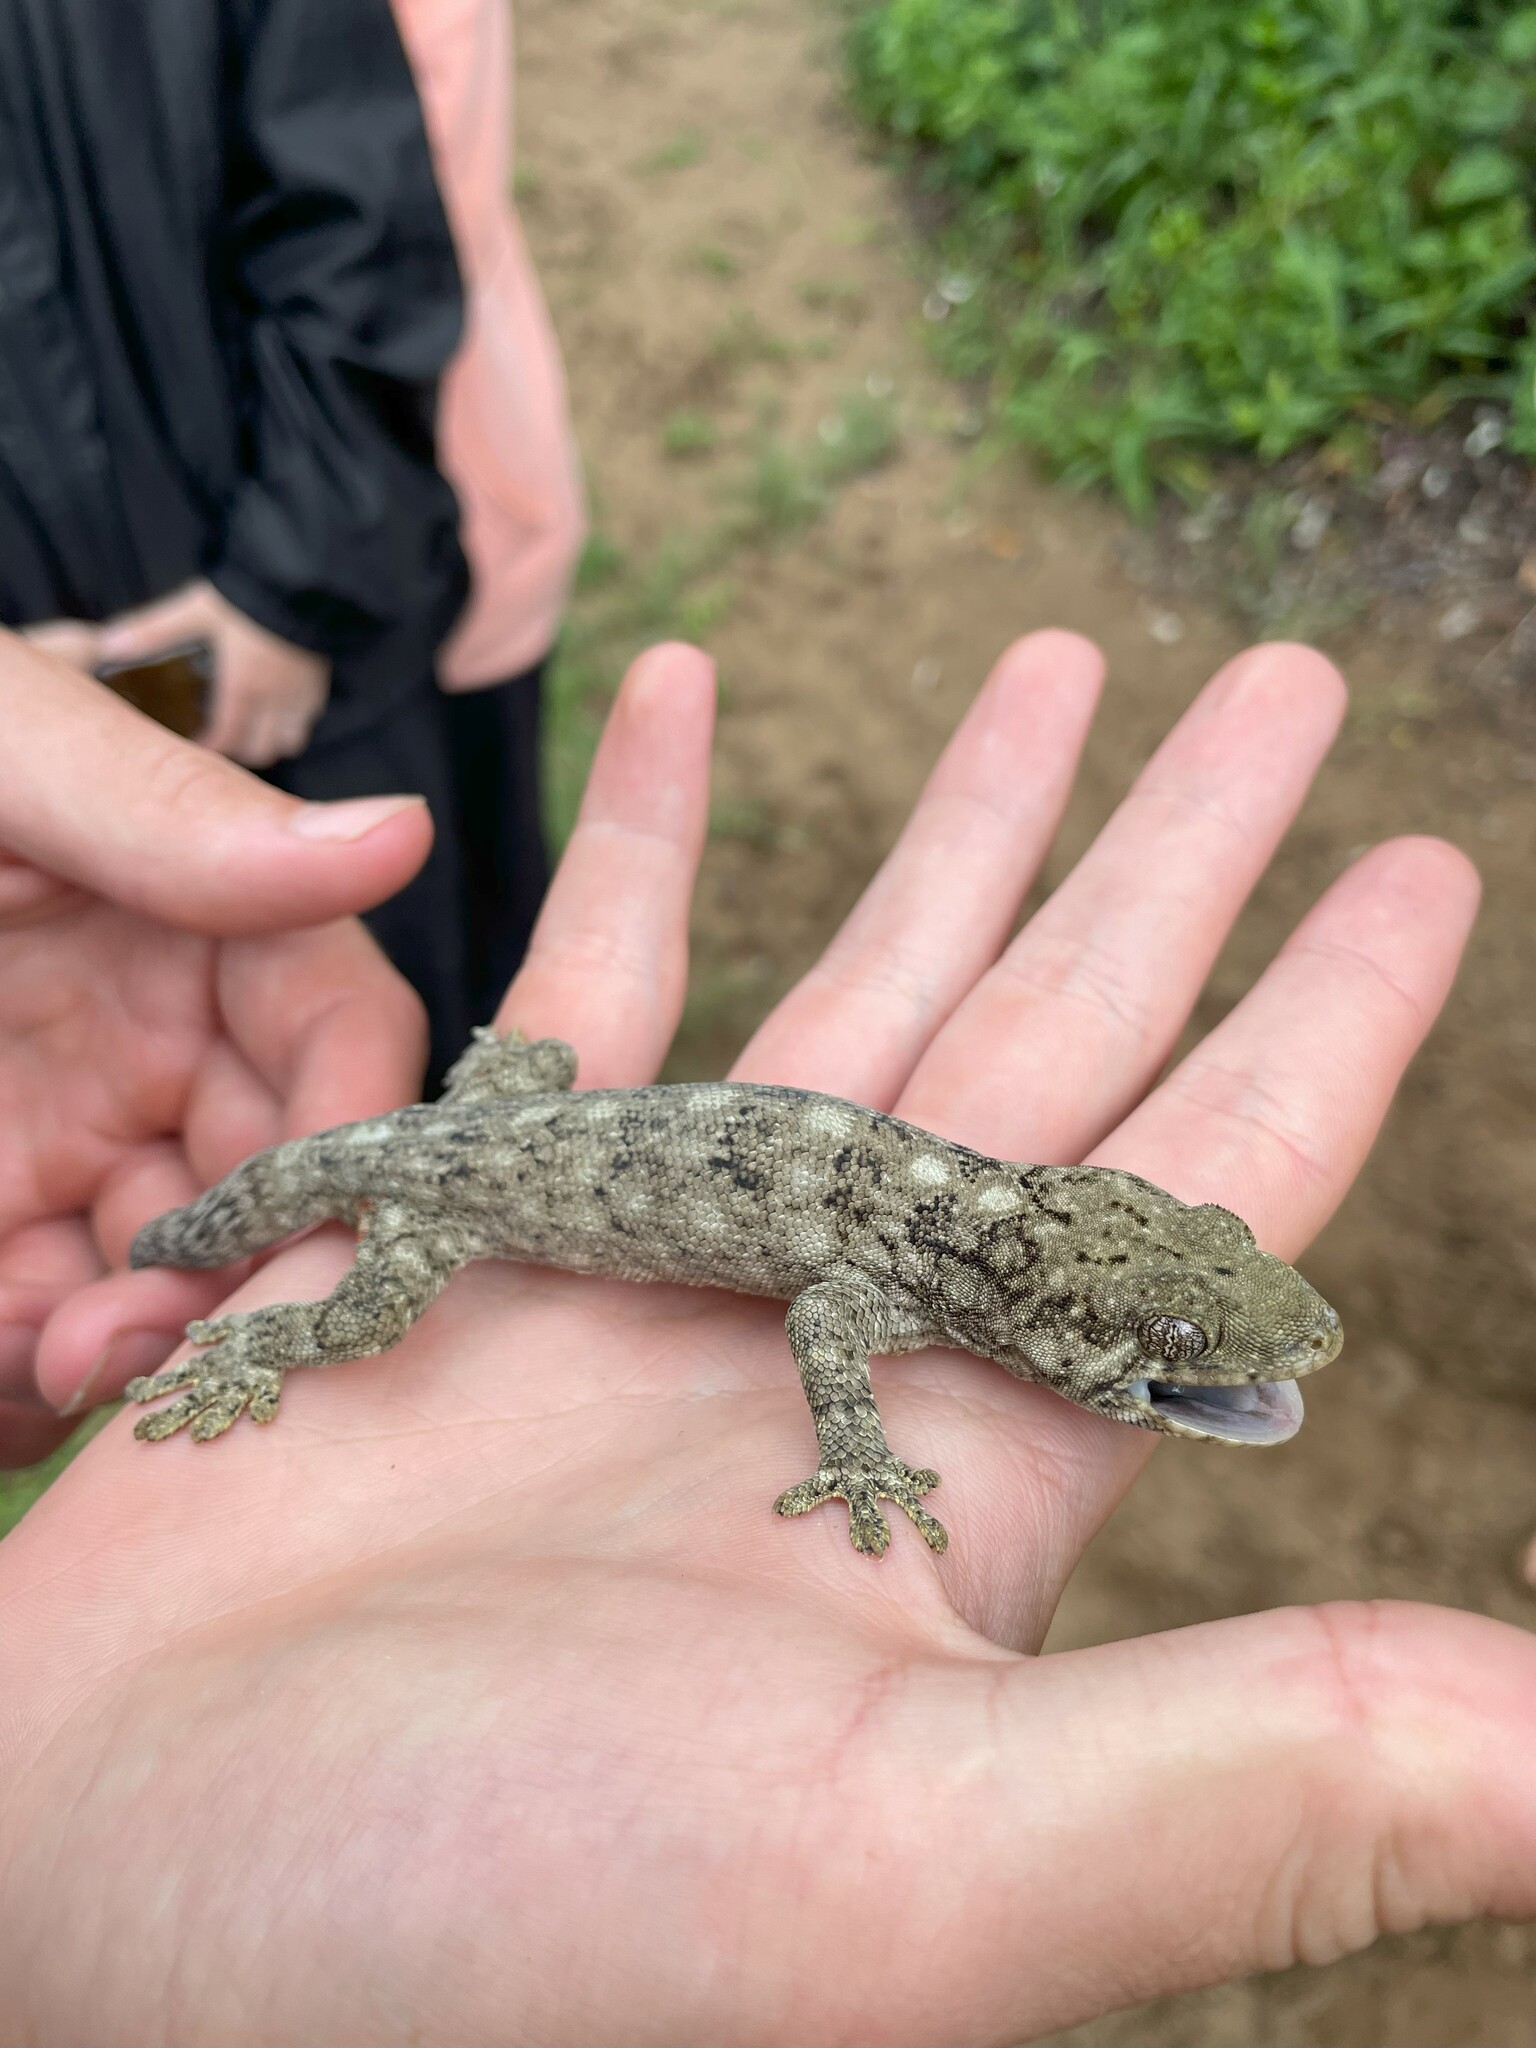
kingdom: Animalia
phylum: Chordata
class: Squamata
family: Gekkonidae
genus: Homopholis
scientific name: Homopholis walbergii
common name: Wahlberg’s velvet gecko
